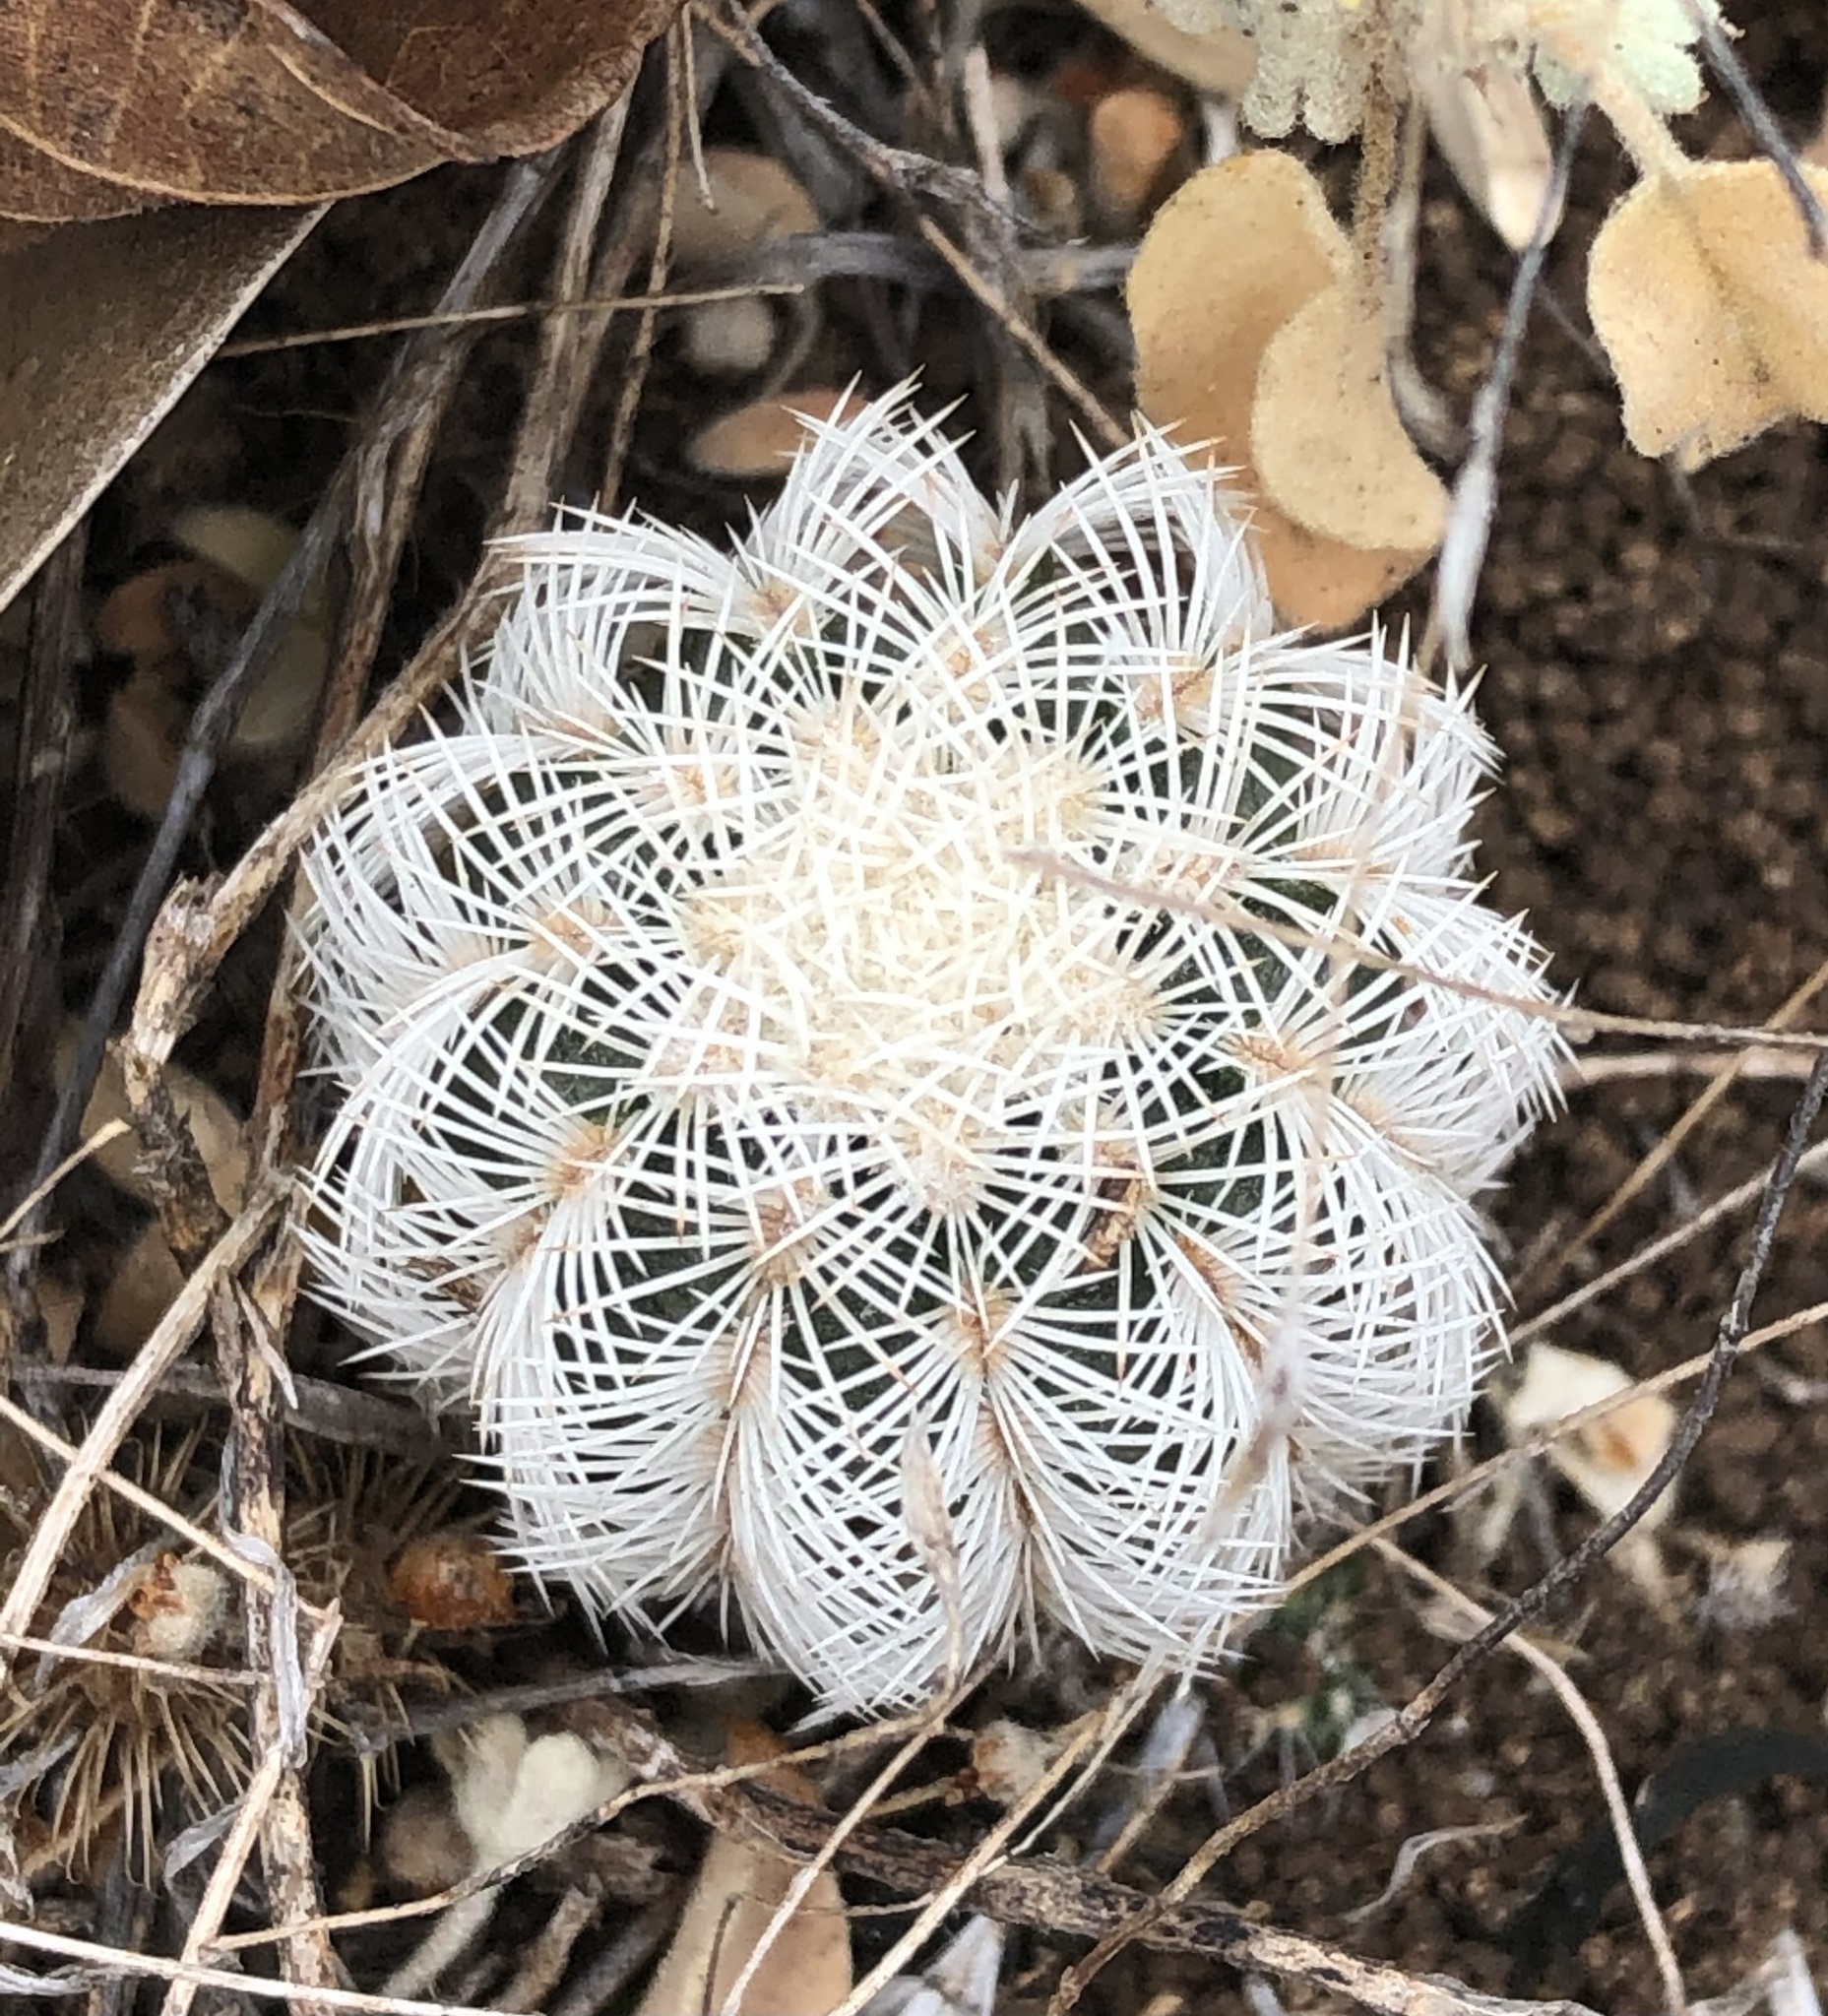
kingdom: Plantae
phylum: Tracheophyta
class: Magnoliopsida
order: Caryophyllales
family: Cactaceae
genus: Echinocereus
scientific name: Echinocereus reichenbachii
